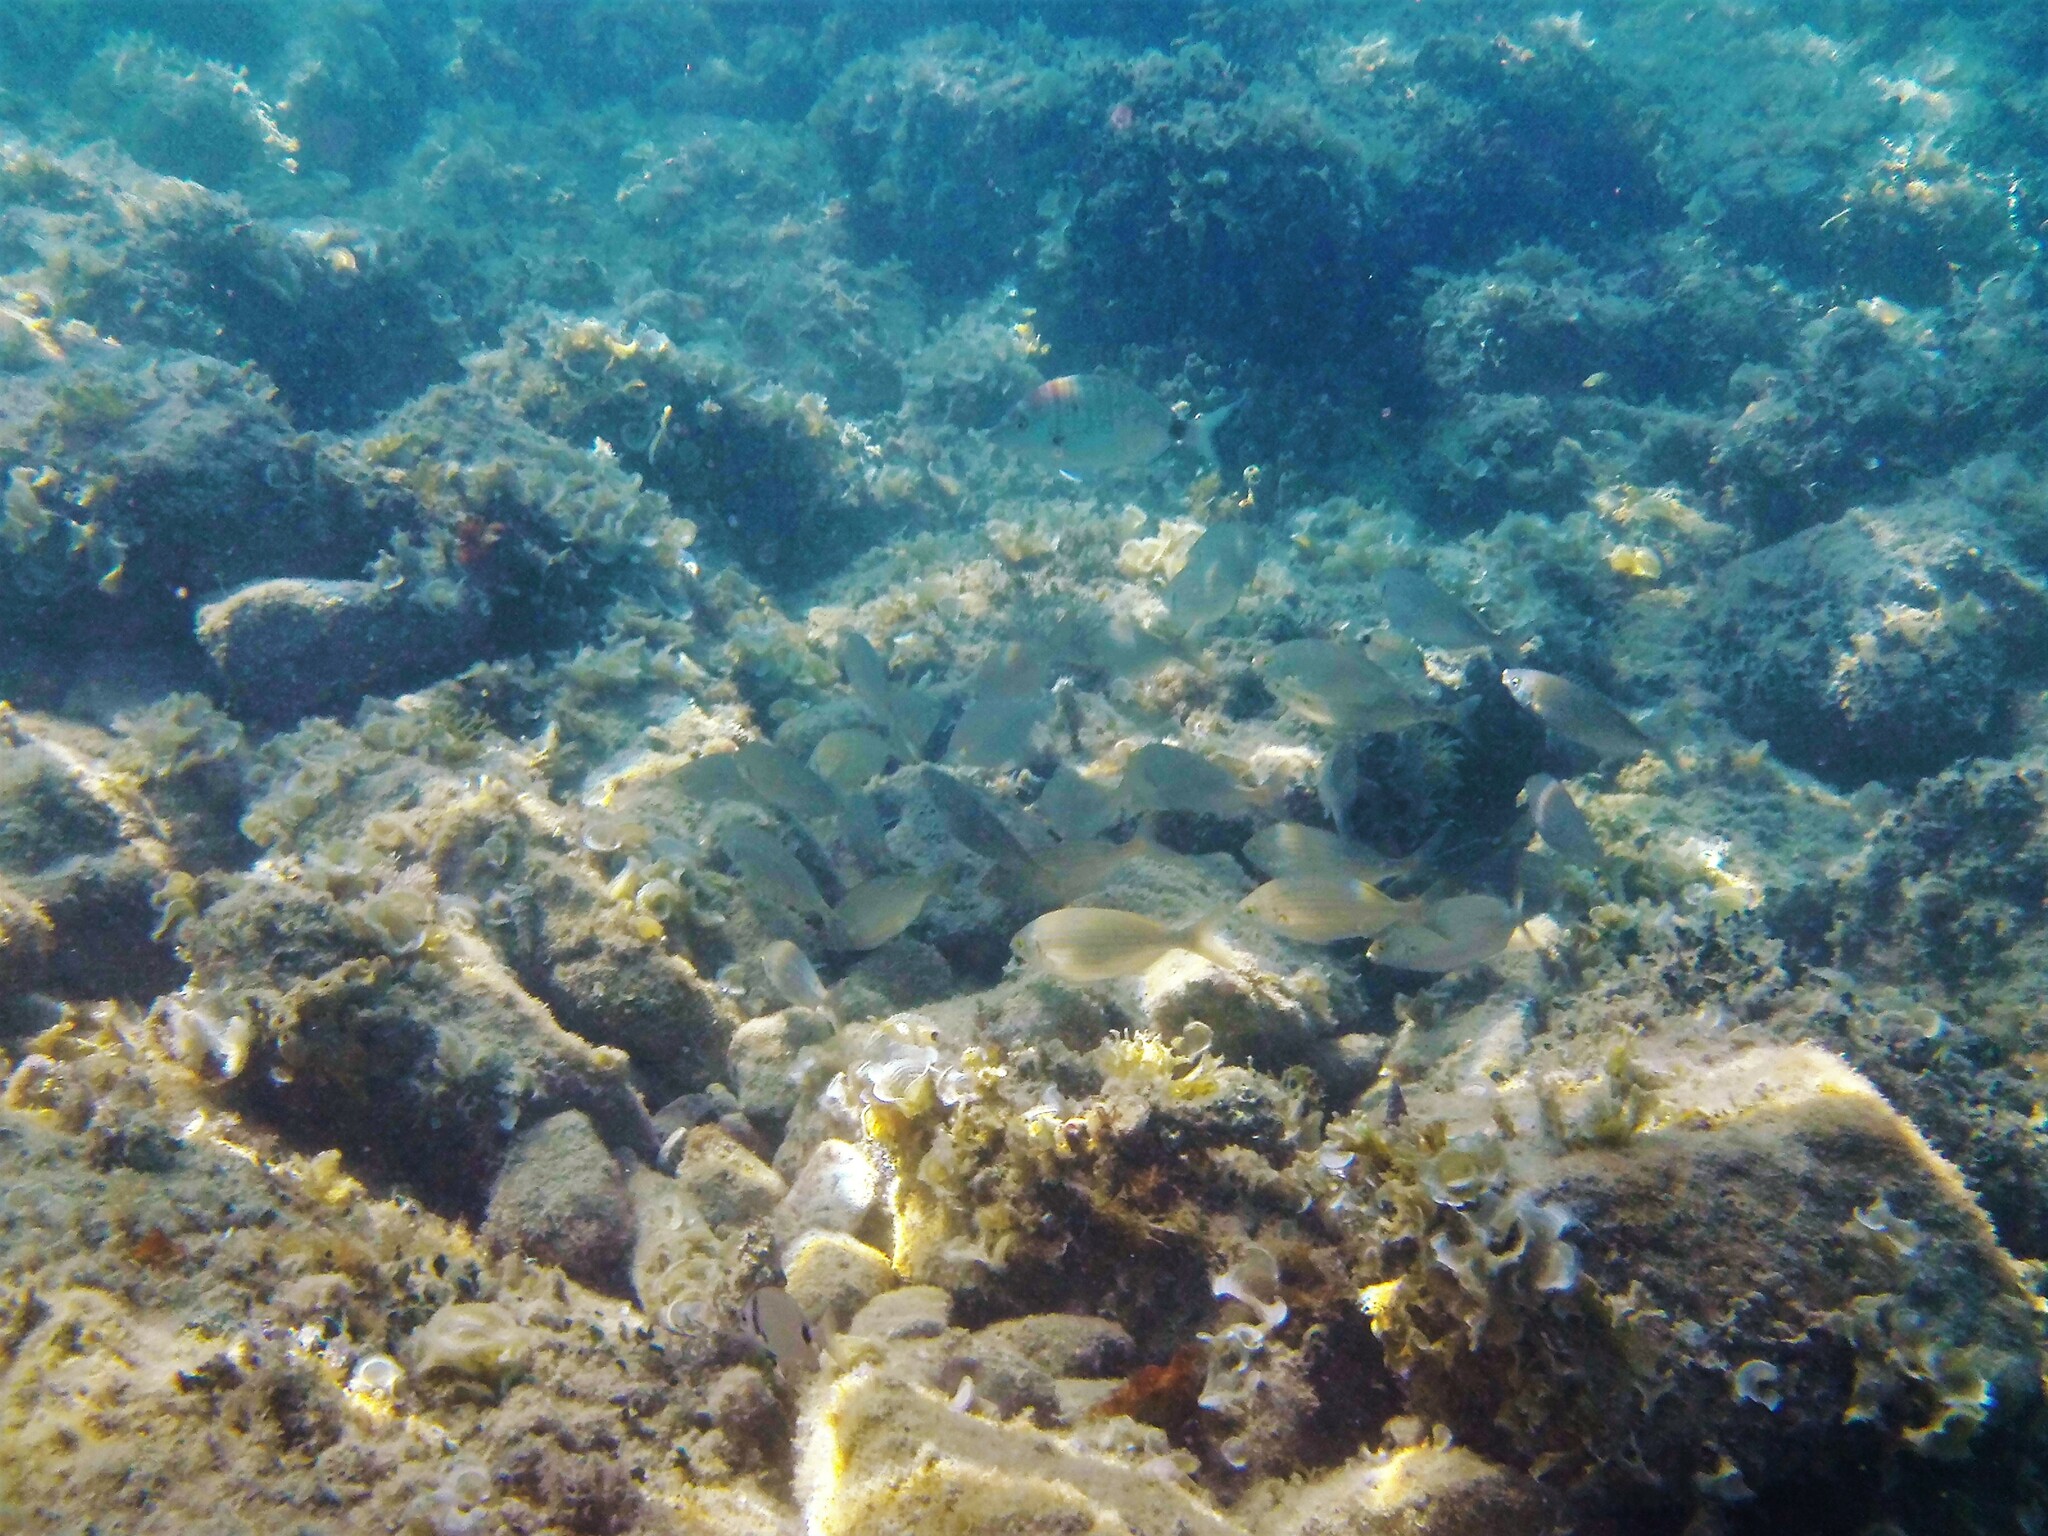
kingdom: Animalia
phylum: Chordata
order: Perciformes
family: Sparidae
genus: Sarpa
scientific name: Sarpa salpa
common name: Salema
